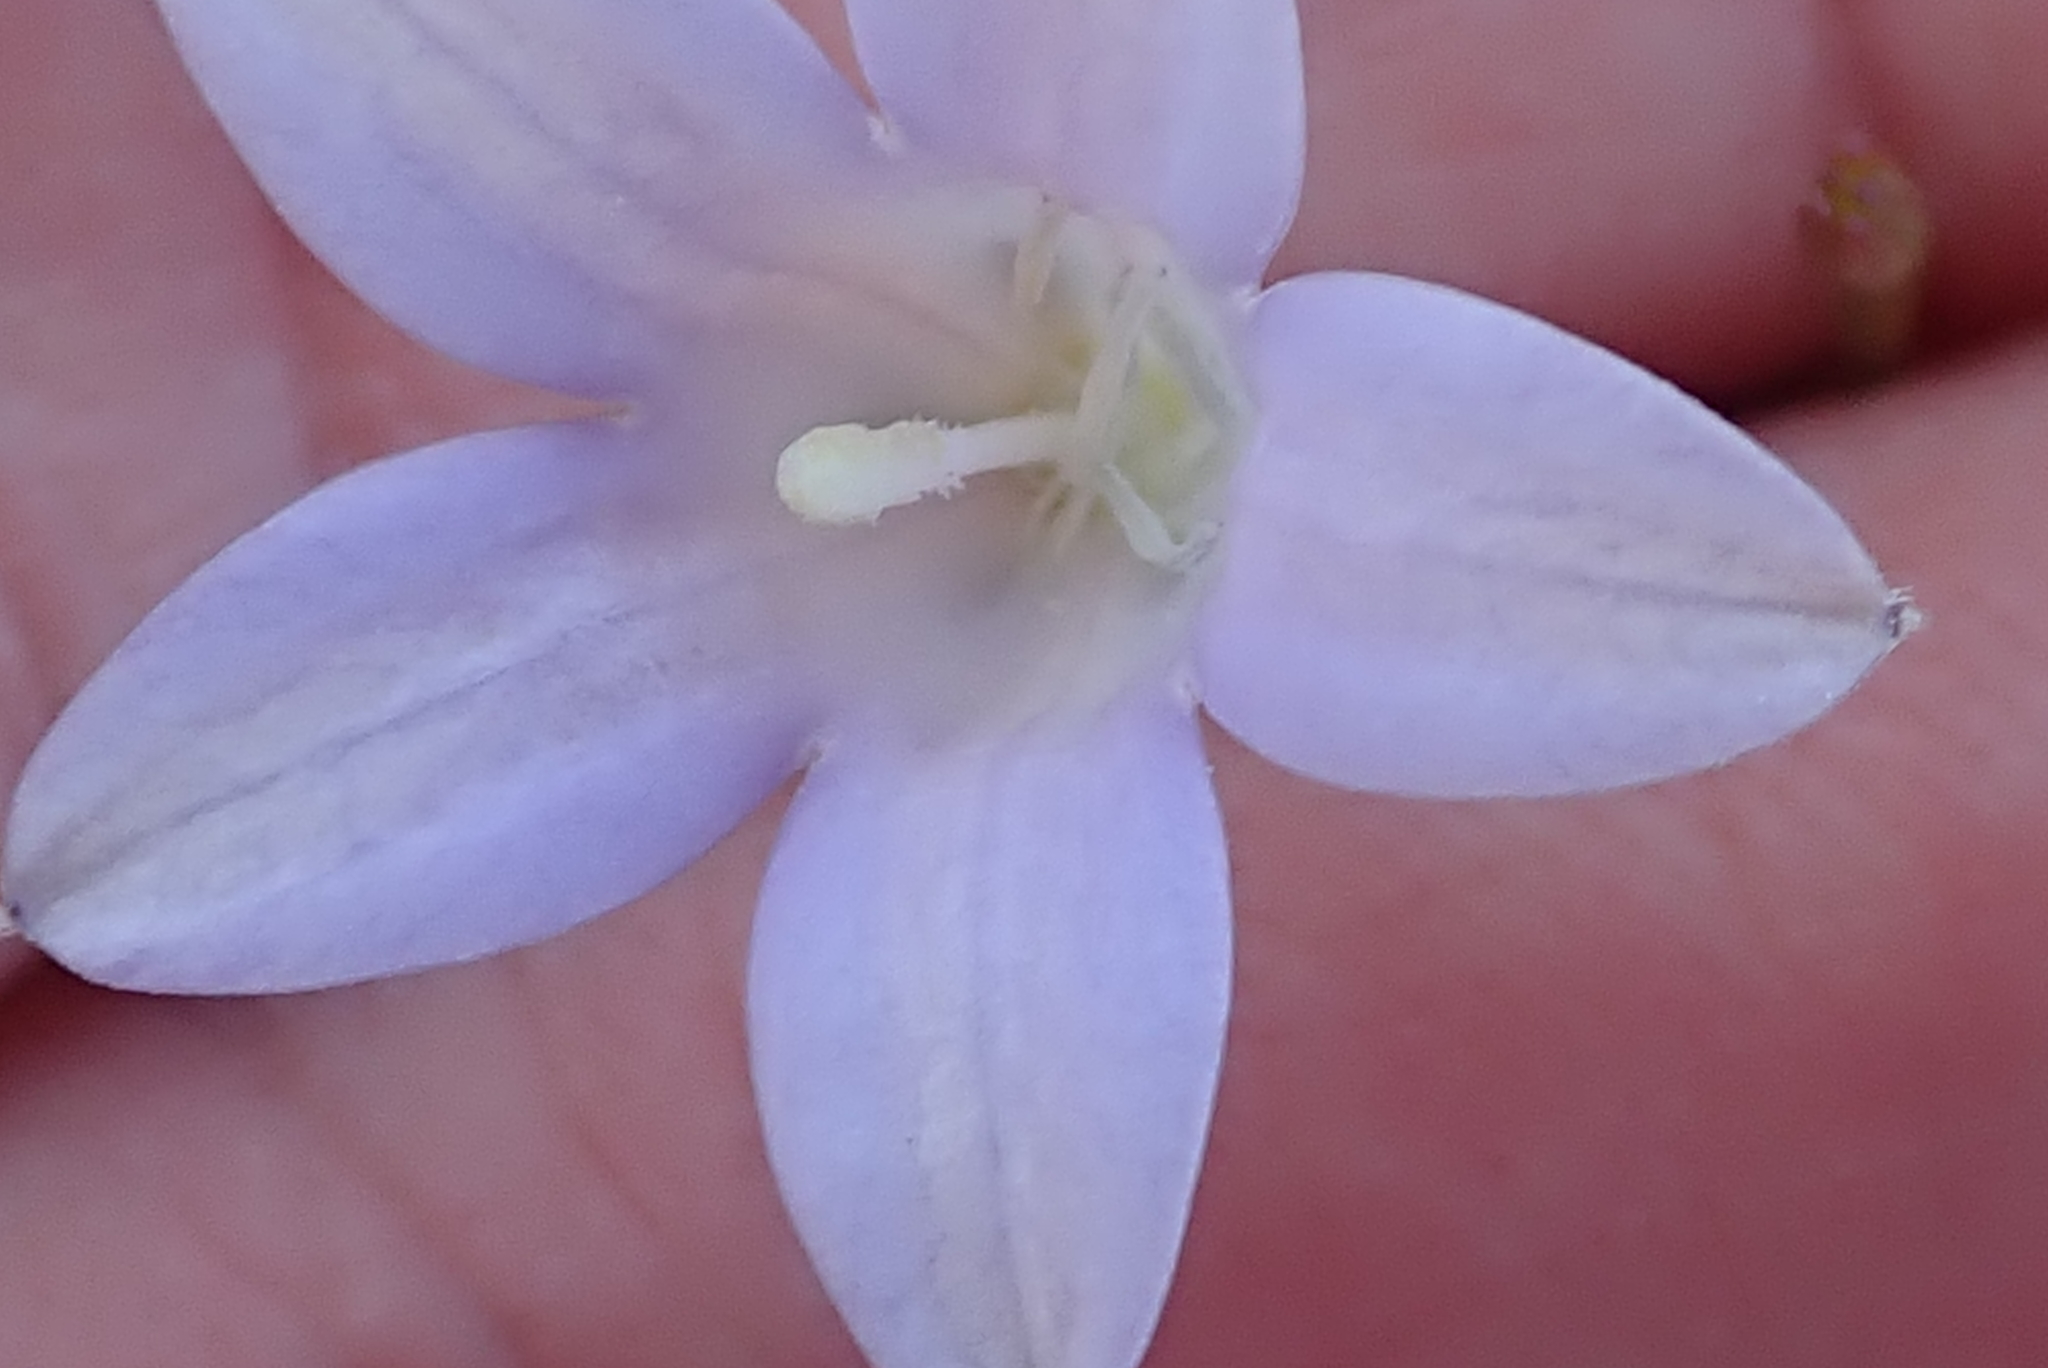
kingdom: Plantae
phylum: Tracheophyta
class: Magnoliopsida
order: Asterales
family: Campanulaceae
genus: Prismatocarpus
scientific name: Prismatocarpus brevilobus
